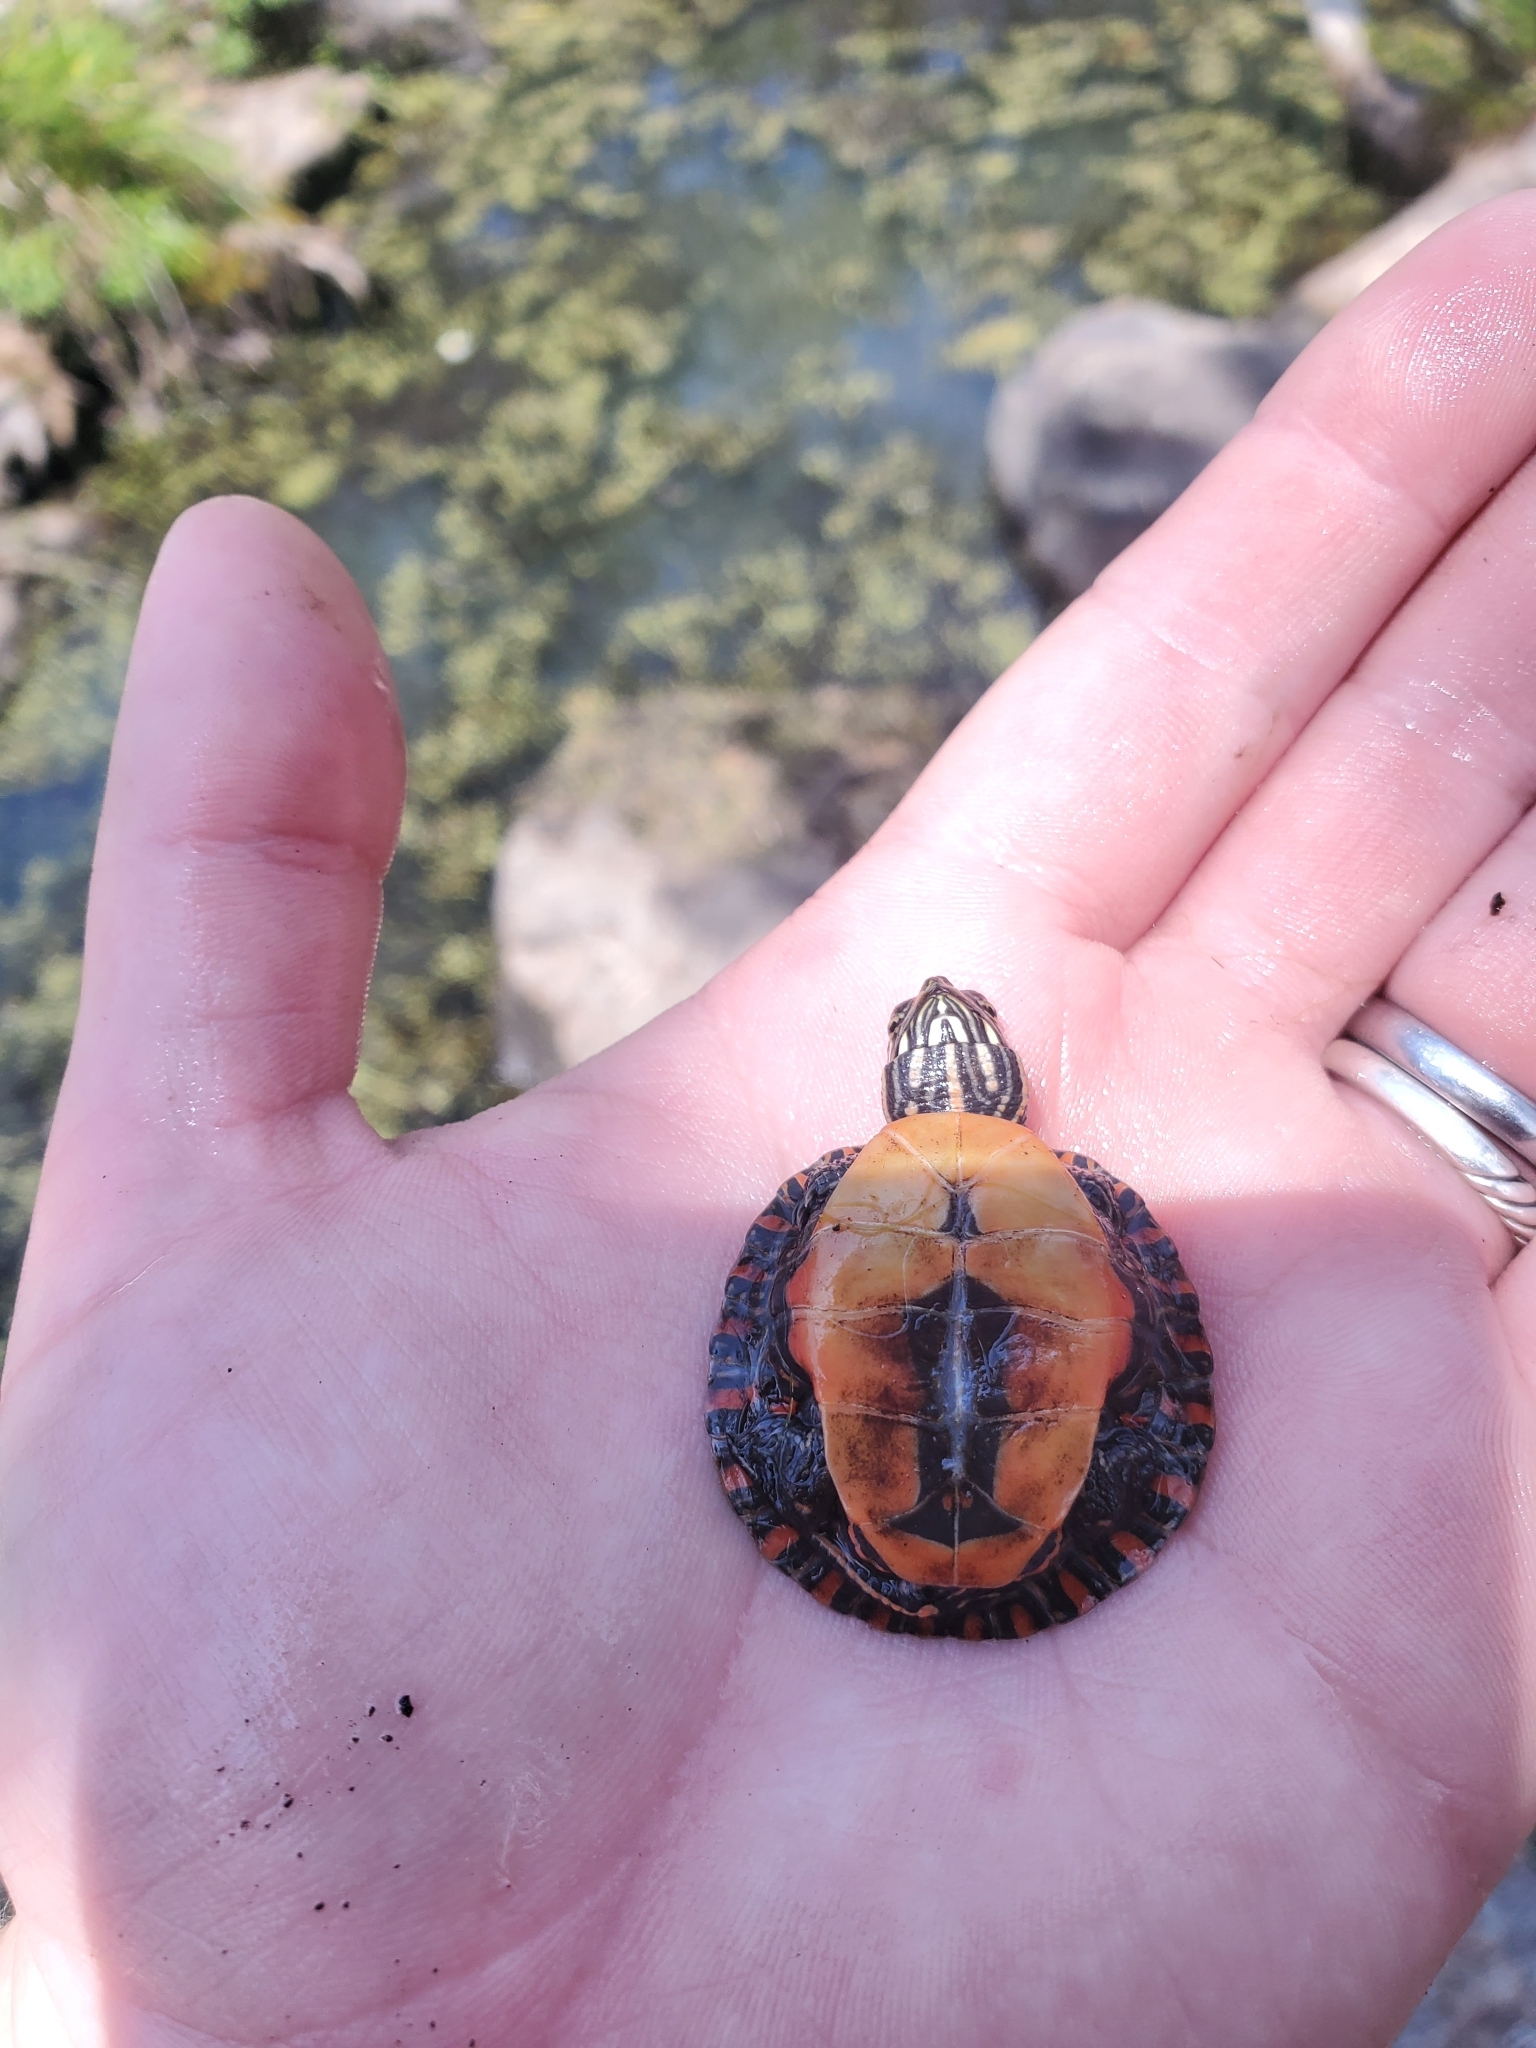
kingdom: Animalia
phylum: Chordata
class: Testudines
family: Emydidae
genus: Chrysemys
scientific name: Chrysemys picta
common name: Painted turtle
